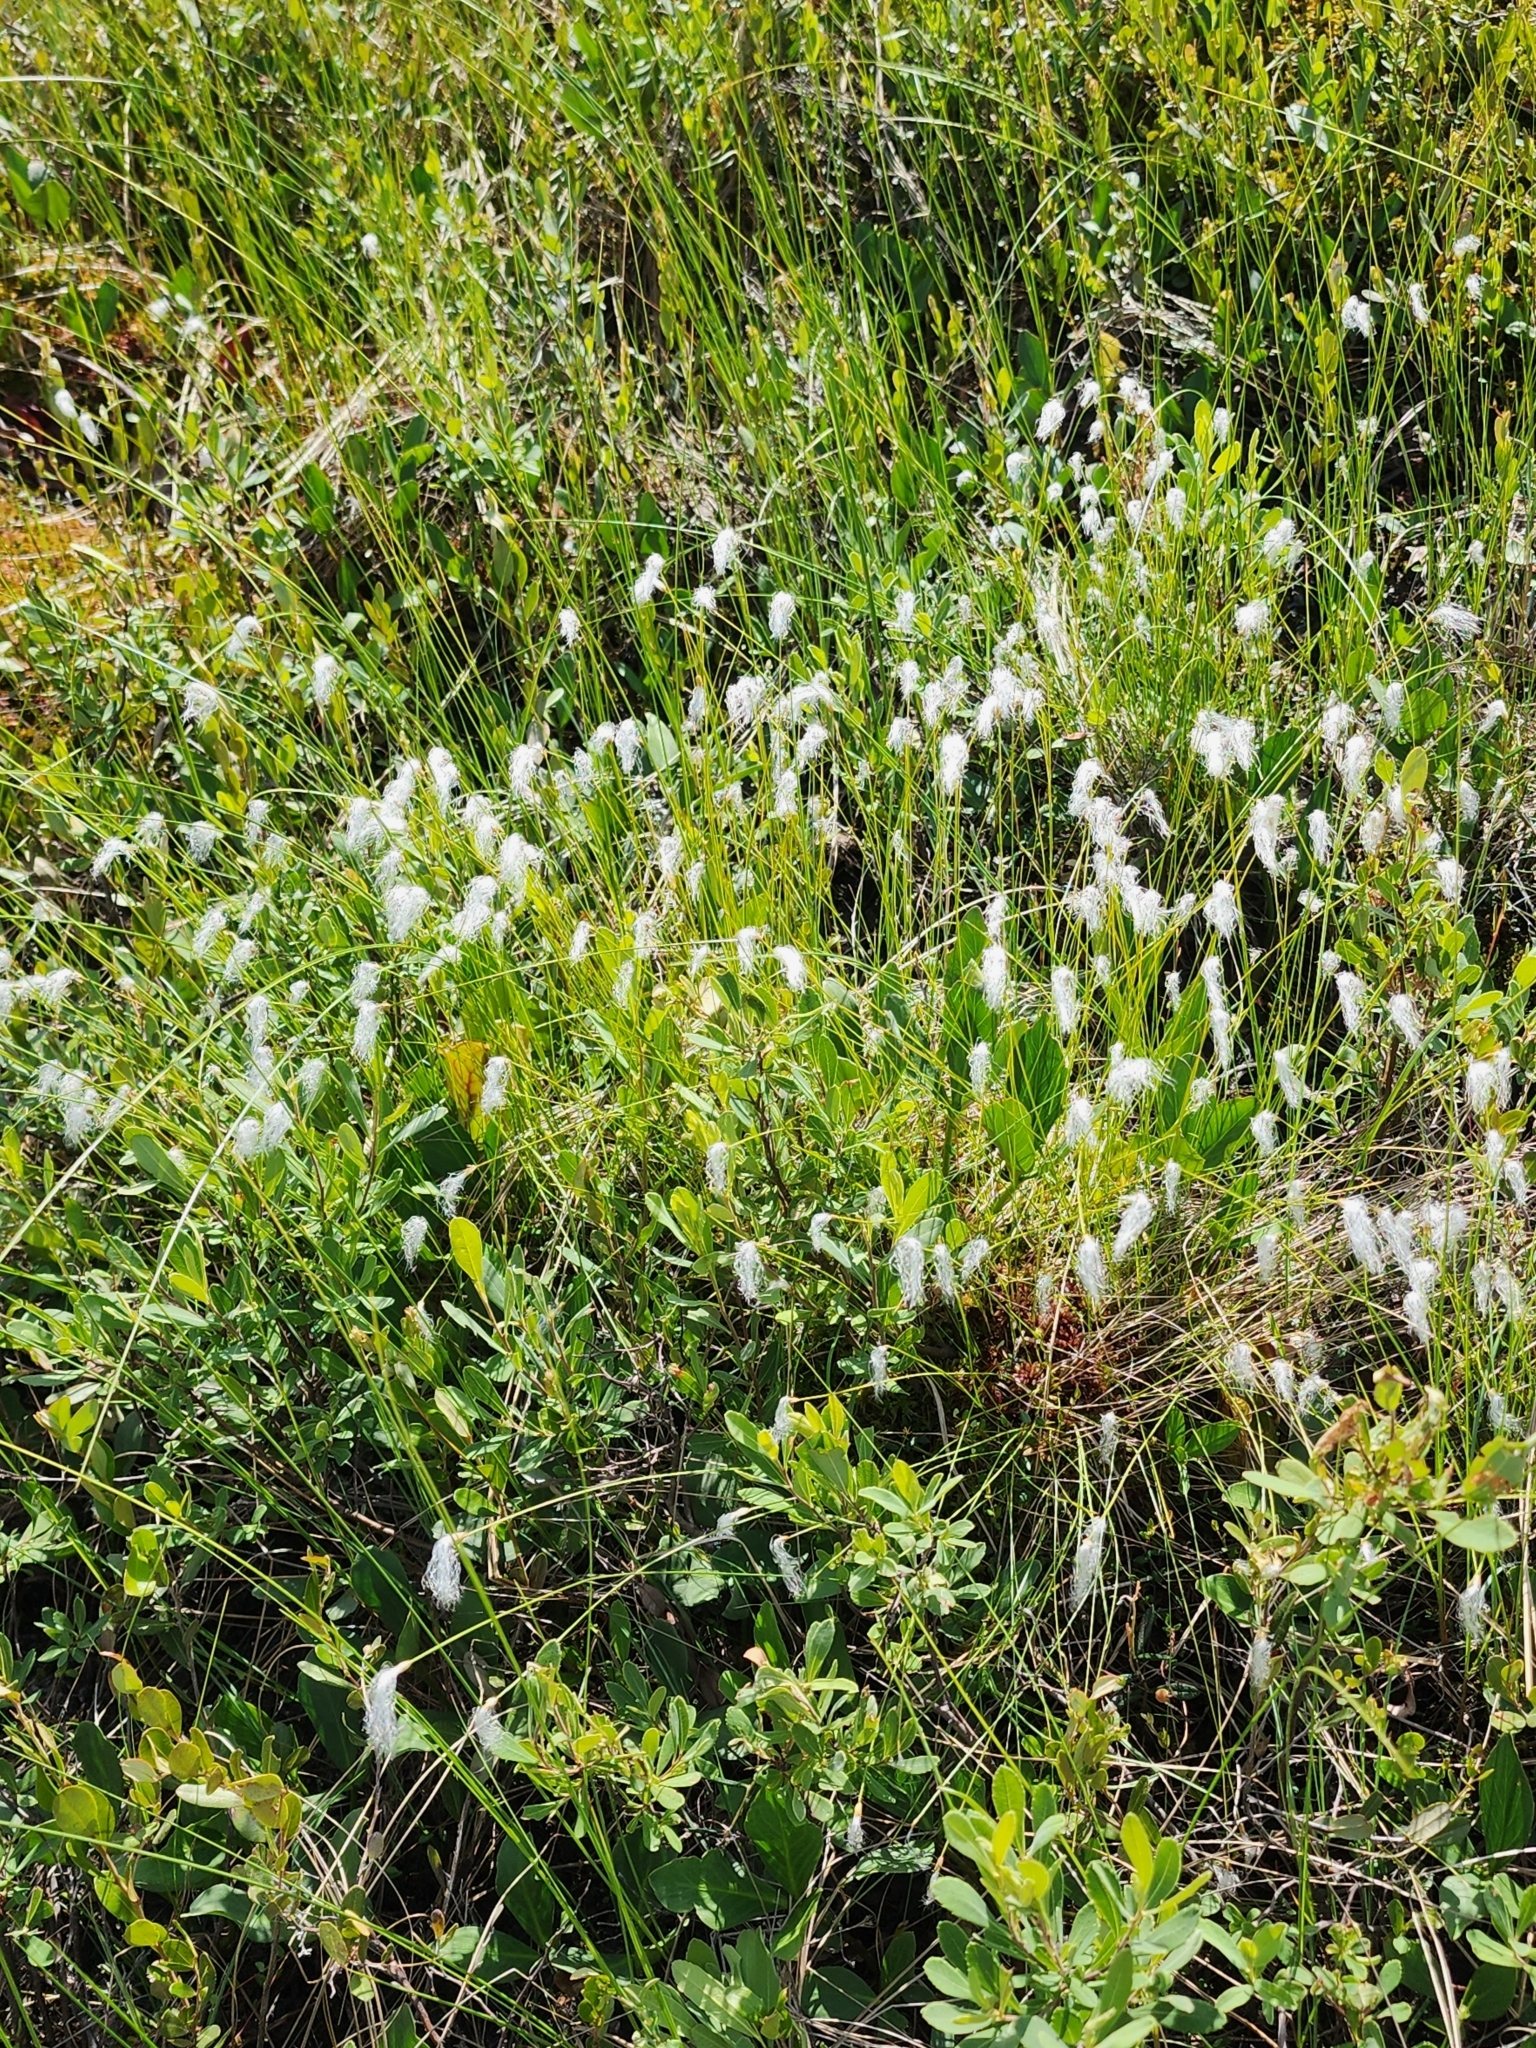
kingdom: Plantae
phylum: Tracheophyta
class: Liliopsida
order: Poales
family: Cyperaceae
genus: Trichophorum
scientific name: Trichophorum alpinum
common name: Alpine bulrush
